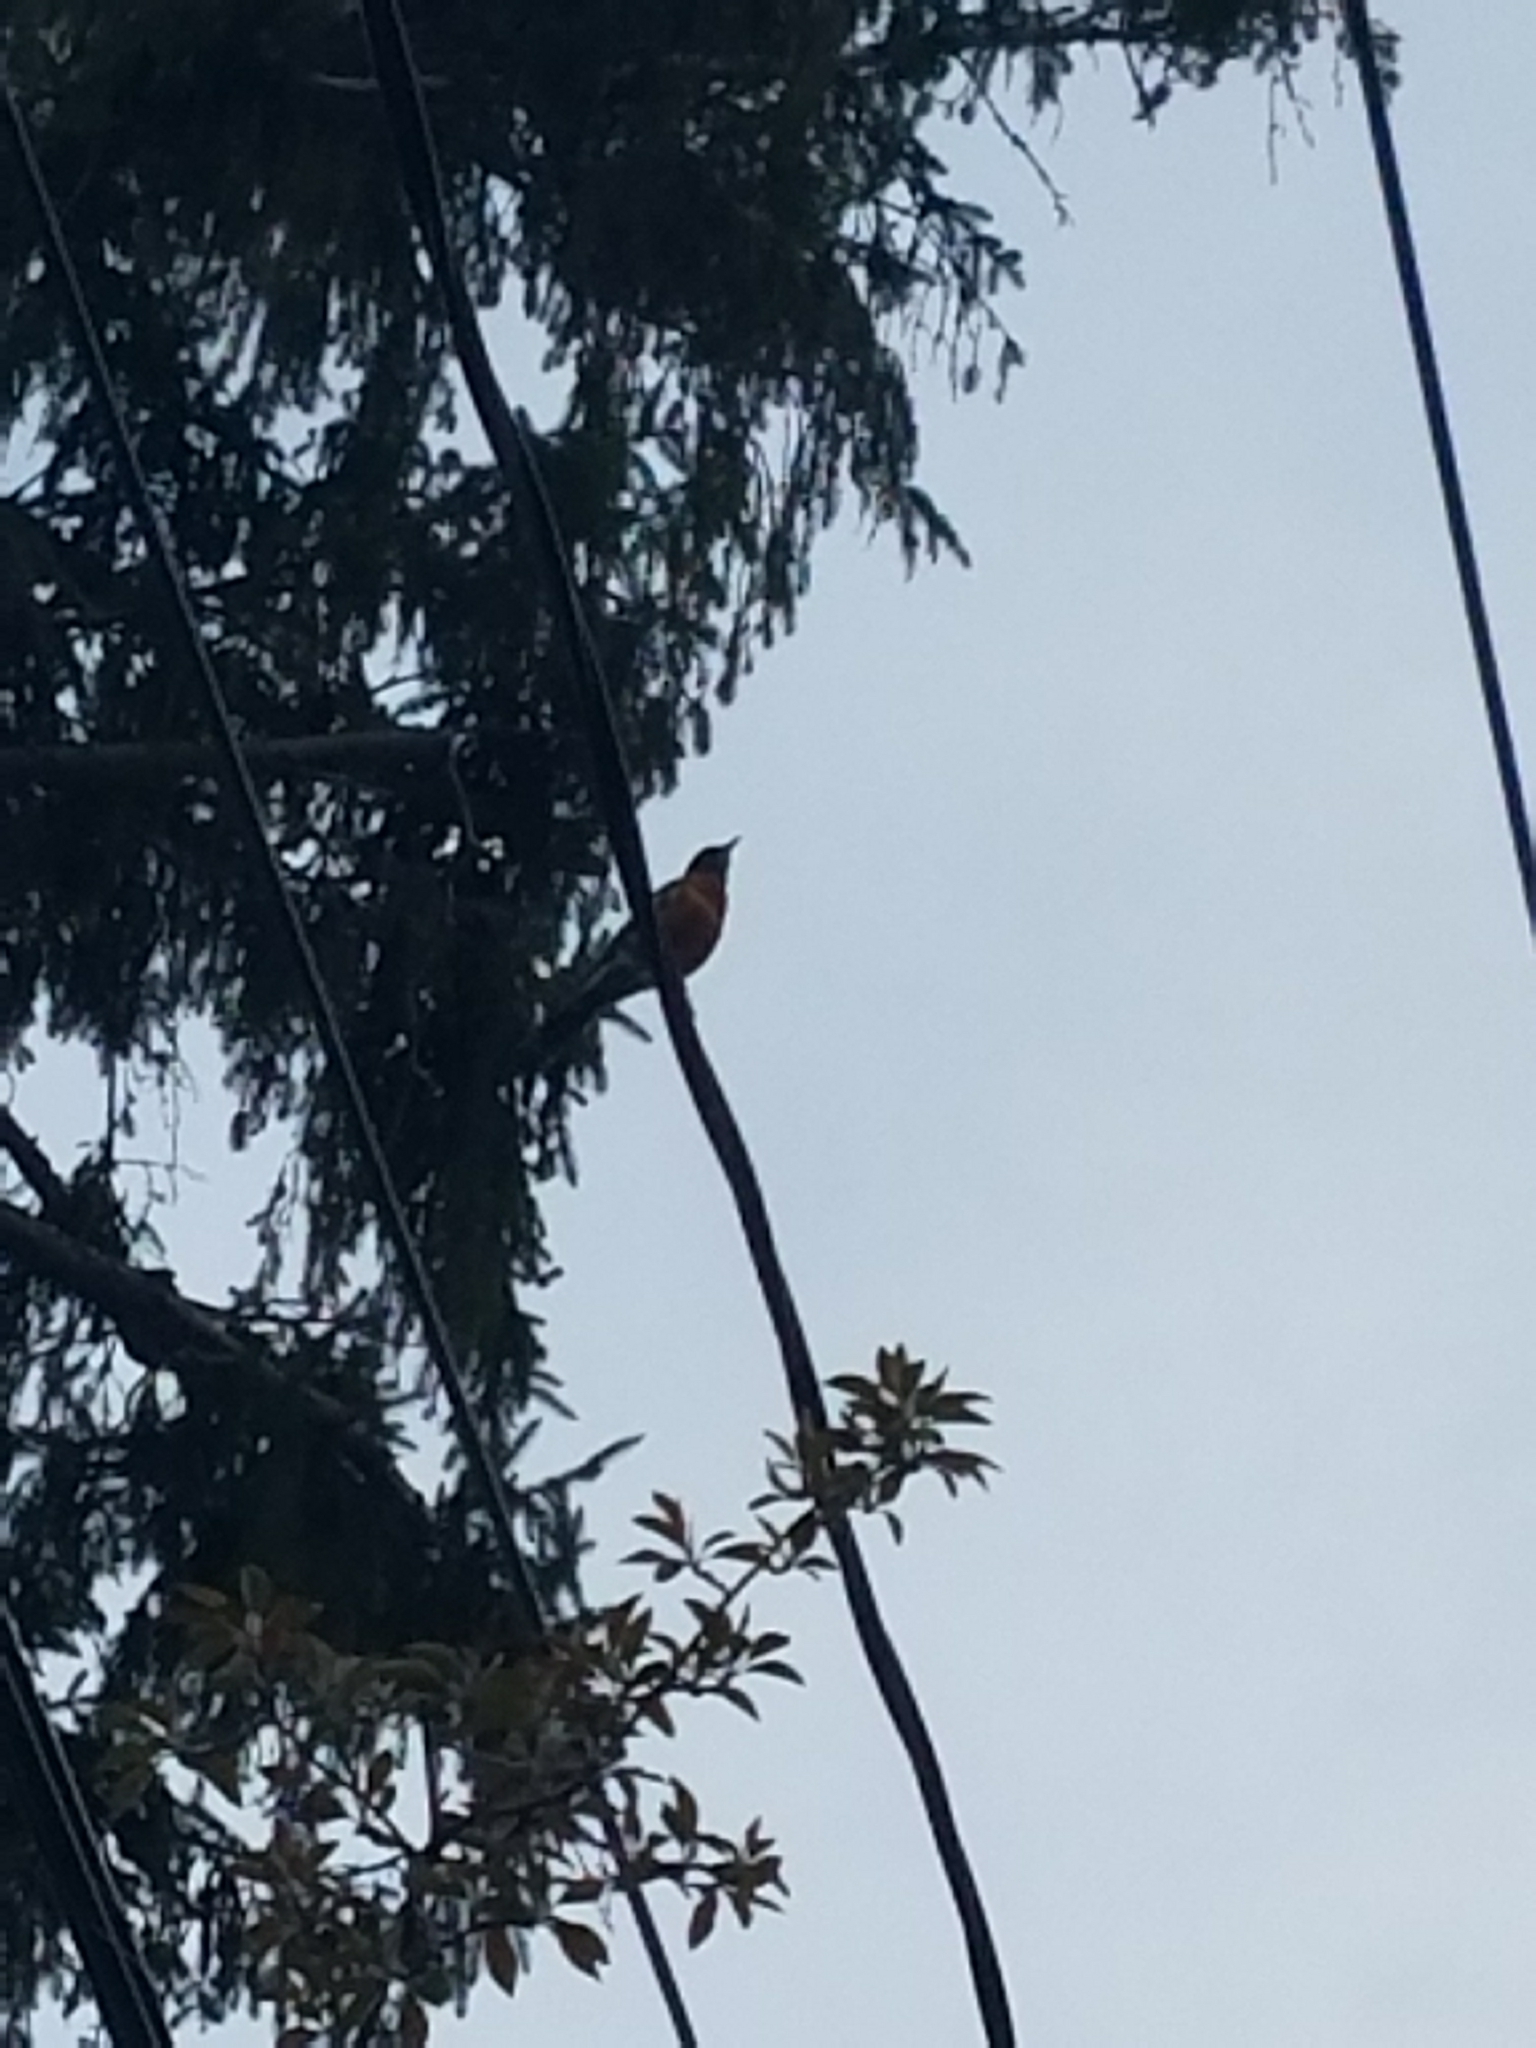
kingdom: Animalia
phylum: Chordata
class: Aves
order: Passeriformes
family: Turdidae
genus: Turdus
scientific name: Turdus migratorius
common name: American robin
